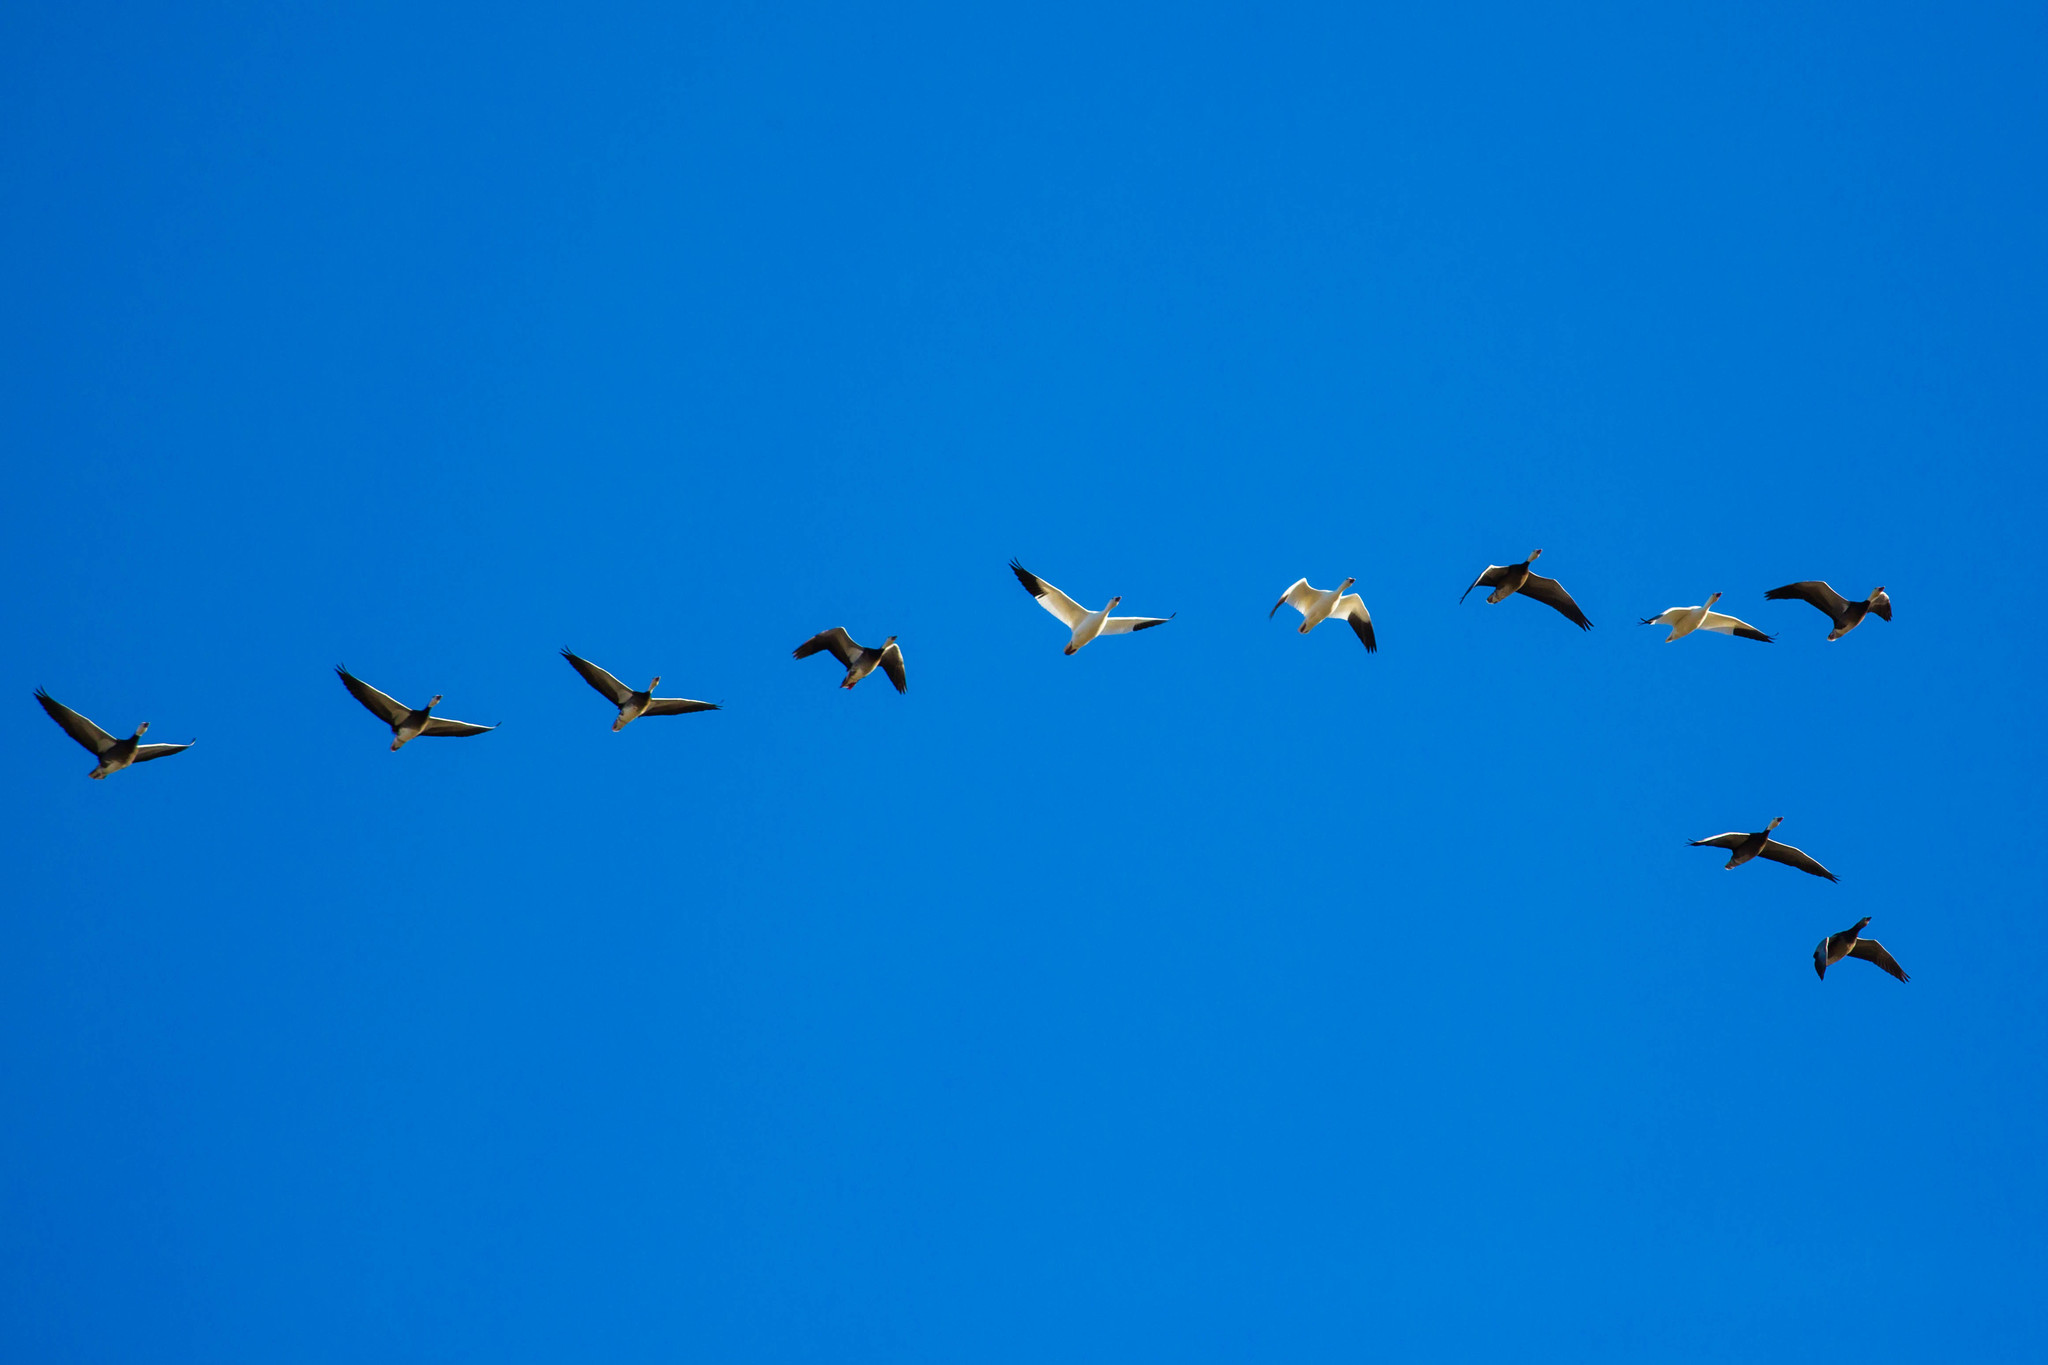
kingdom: Animalia
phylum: Chordata
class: Aves
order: Anseriformes
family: Anatidae
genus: Anser
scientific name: Anser caerulescens
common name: Snow goose
